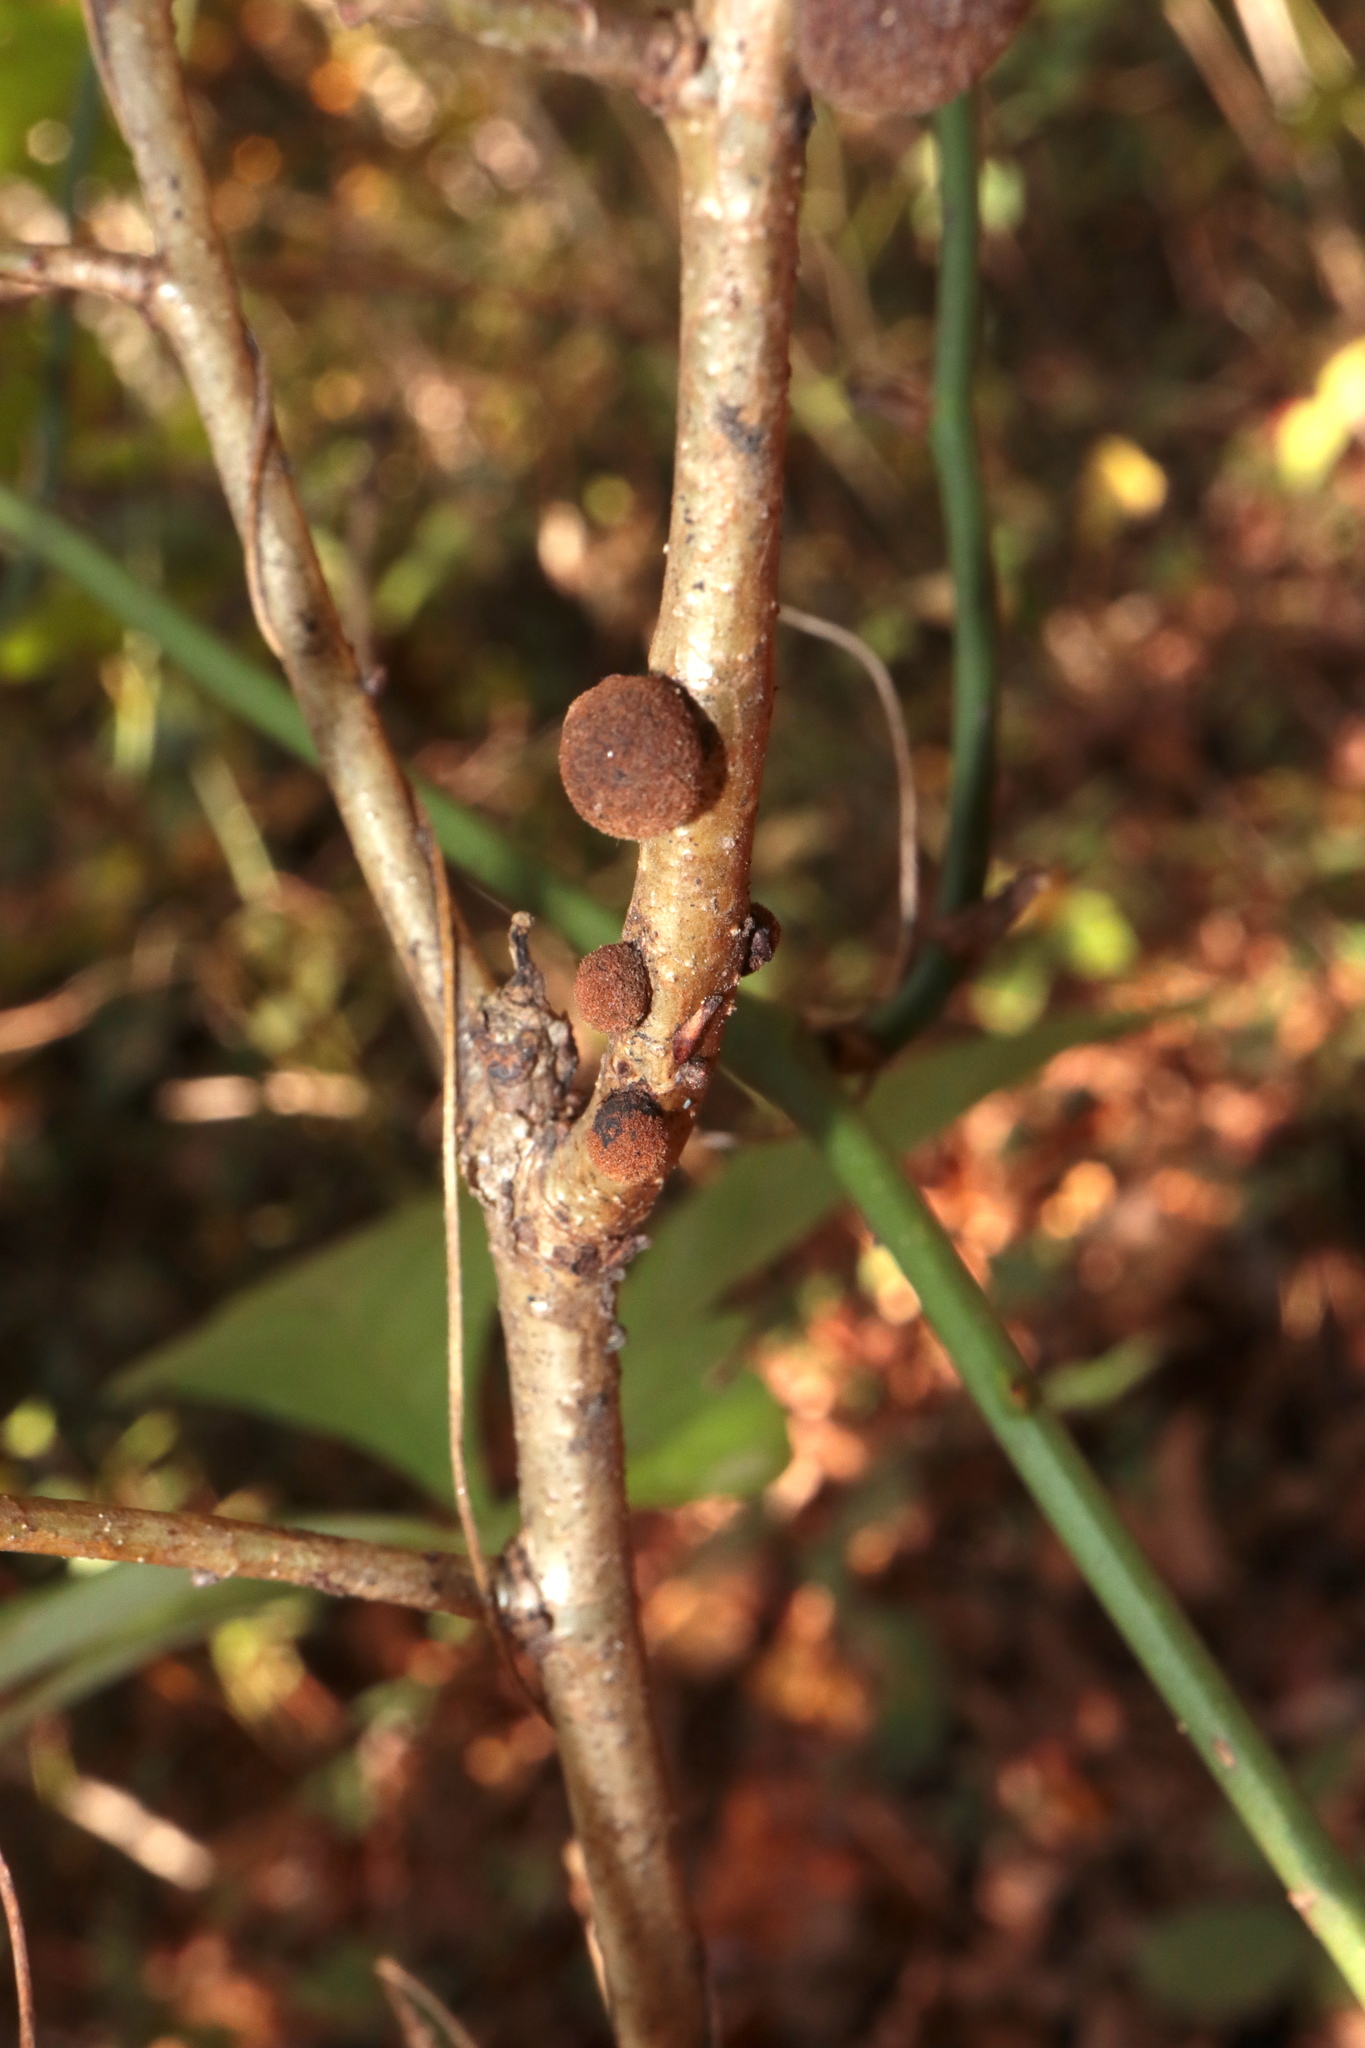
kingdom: Animalia
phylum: Arthropoda
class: Insecta
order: Hymenoptera
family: Cynipidae
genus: Disholcaspis
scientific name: Disholcaspis
